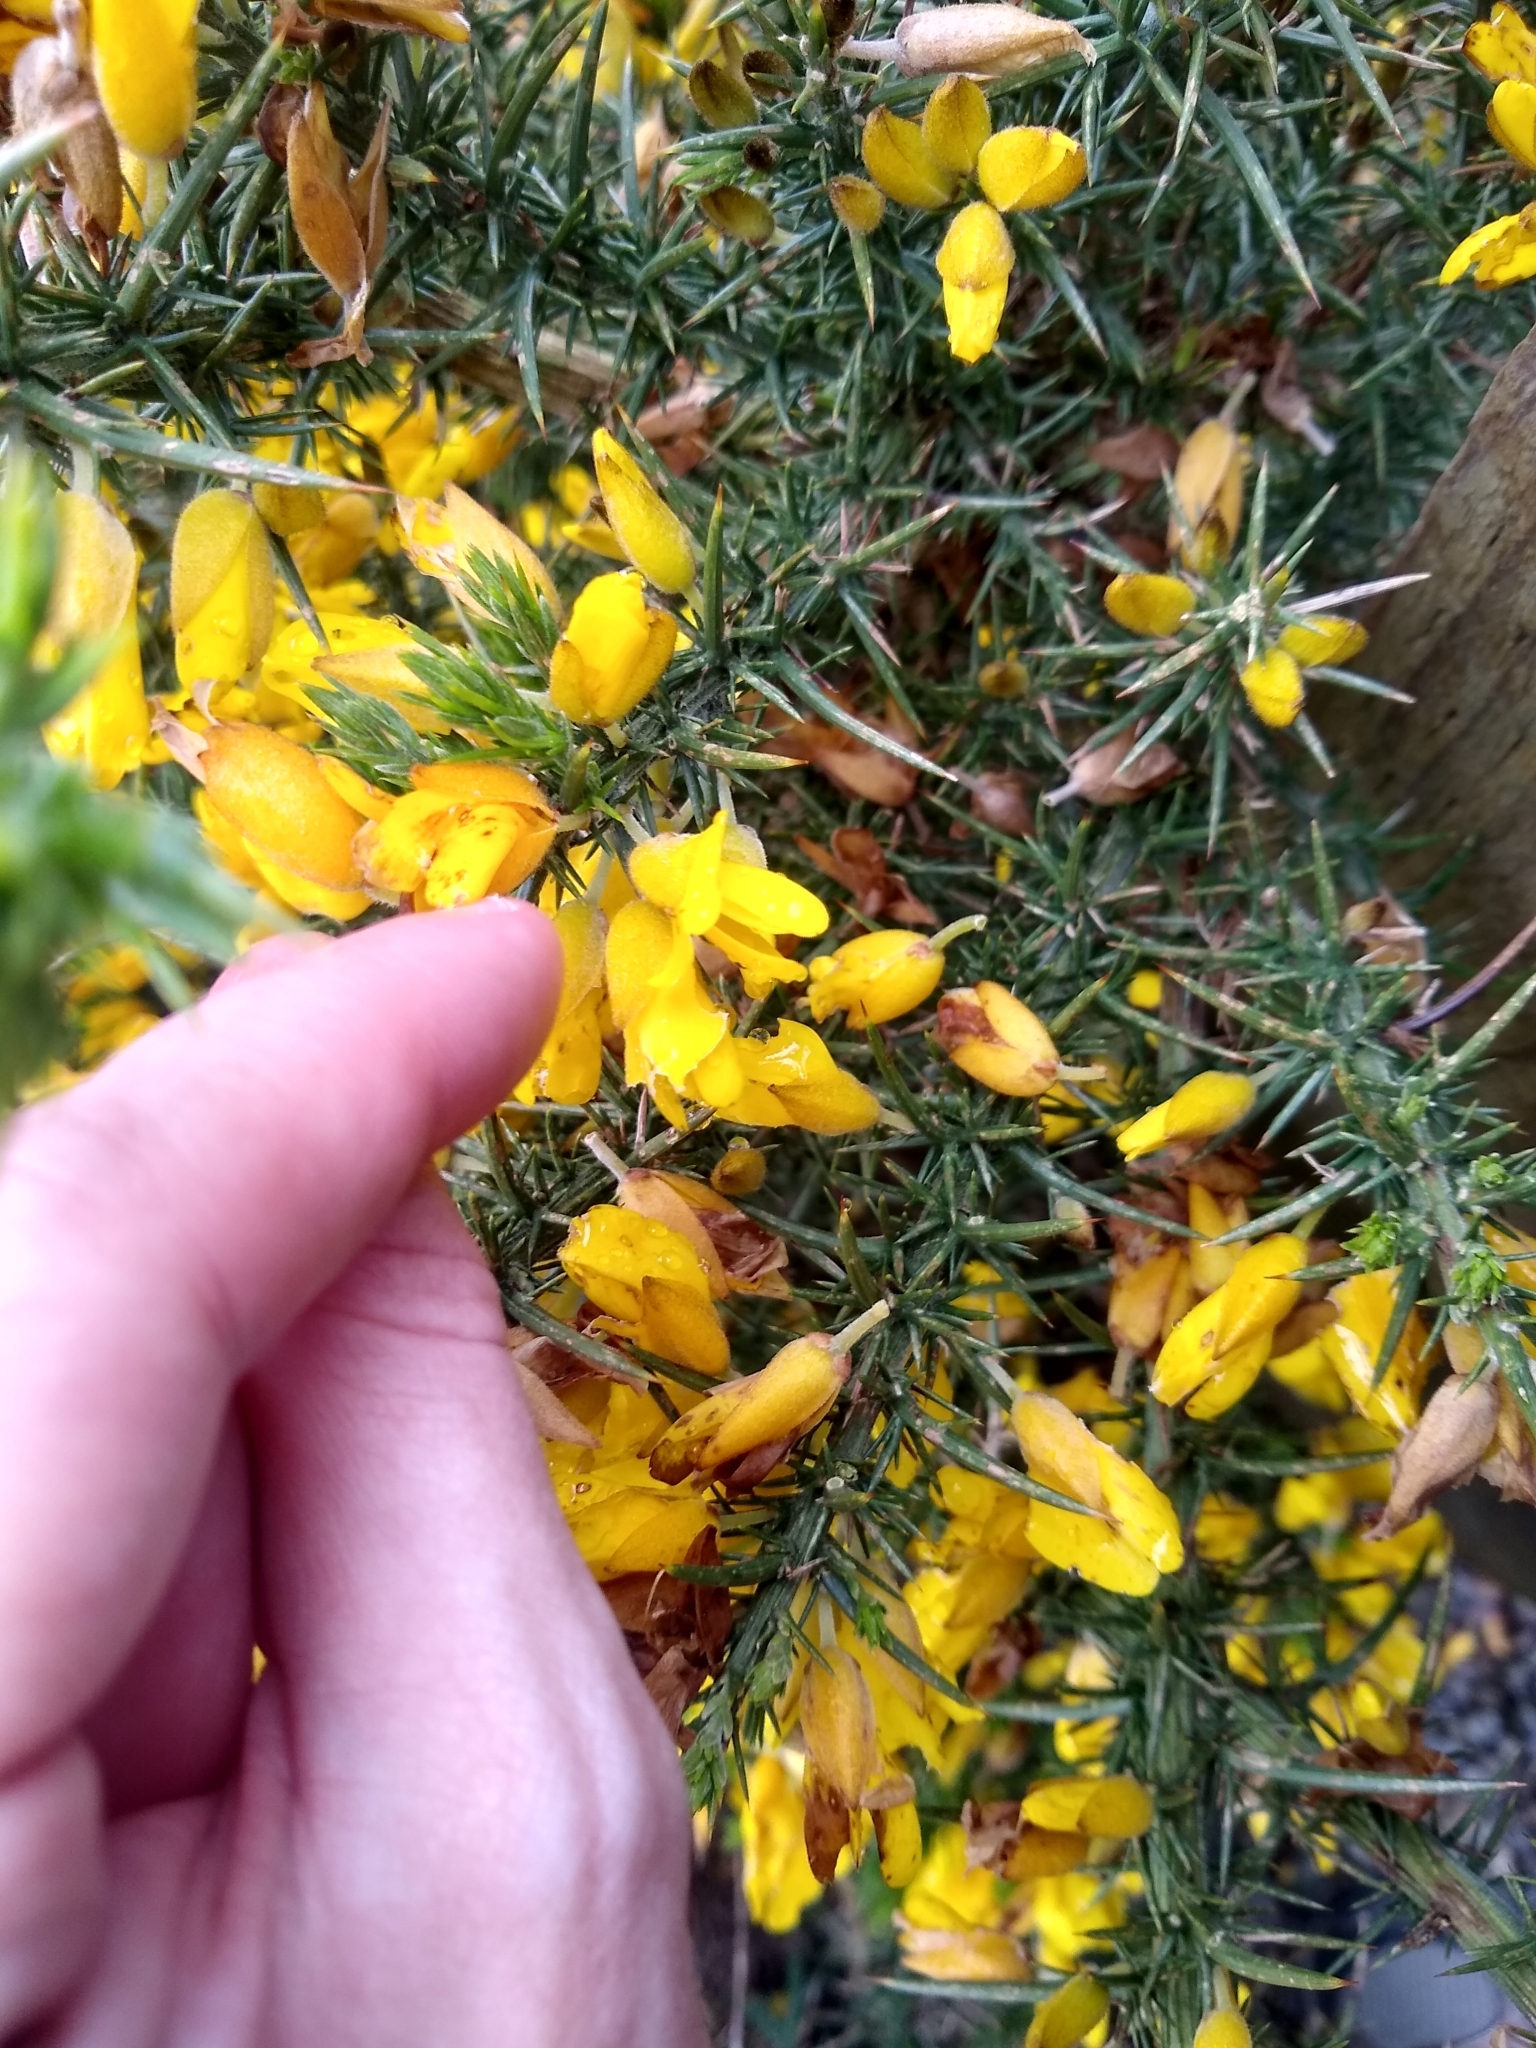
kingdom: Plantae
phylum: Tracheophyta
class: Magnoliopsida
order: Fabales
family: Fabaceae
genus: Ulex
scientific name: Ulex europaeus
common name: Common gorse
